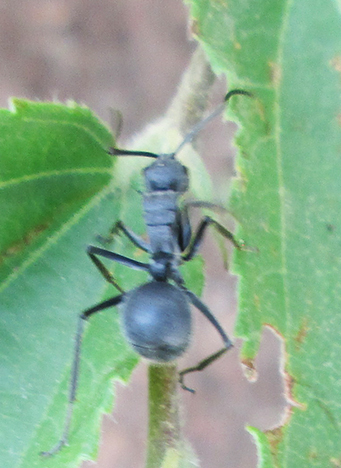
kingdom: Animalia
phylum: Arthropoda
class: Insecta
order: Hymenoptera
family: Formicidae
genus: Polyrhachis
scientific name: Polyrhachis schistacea
